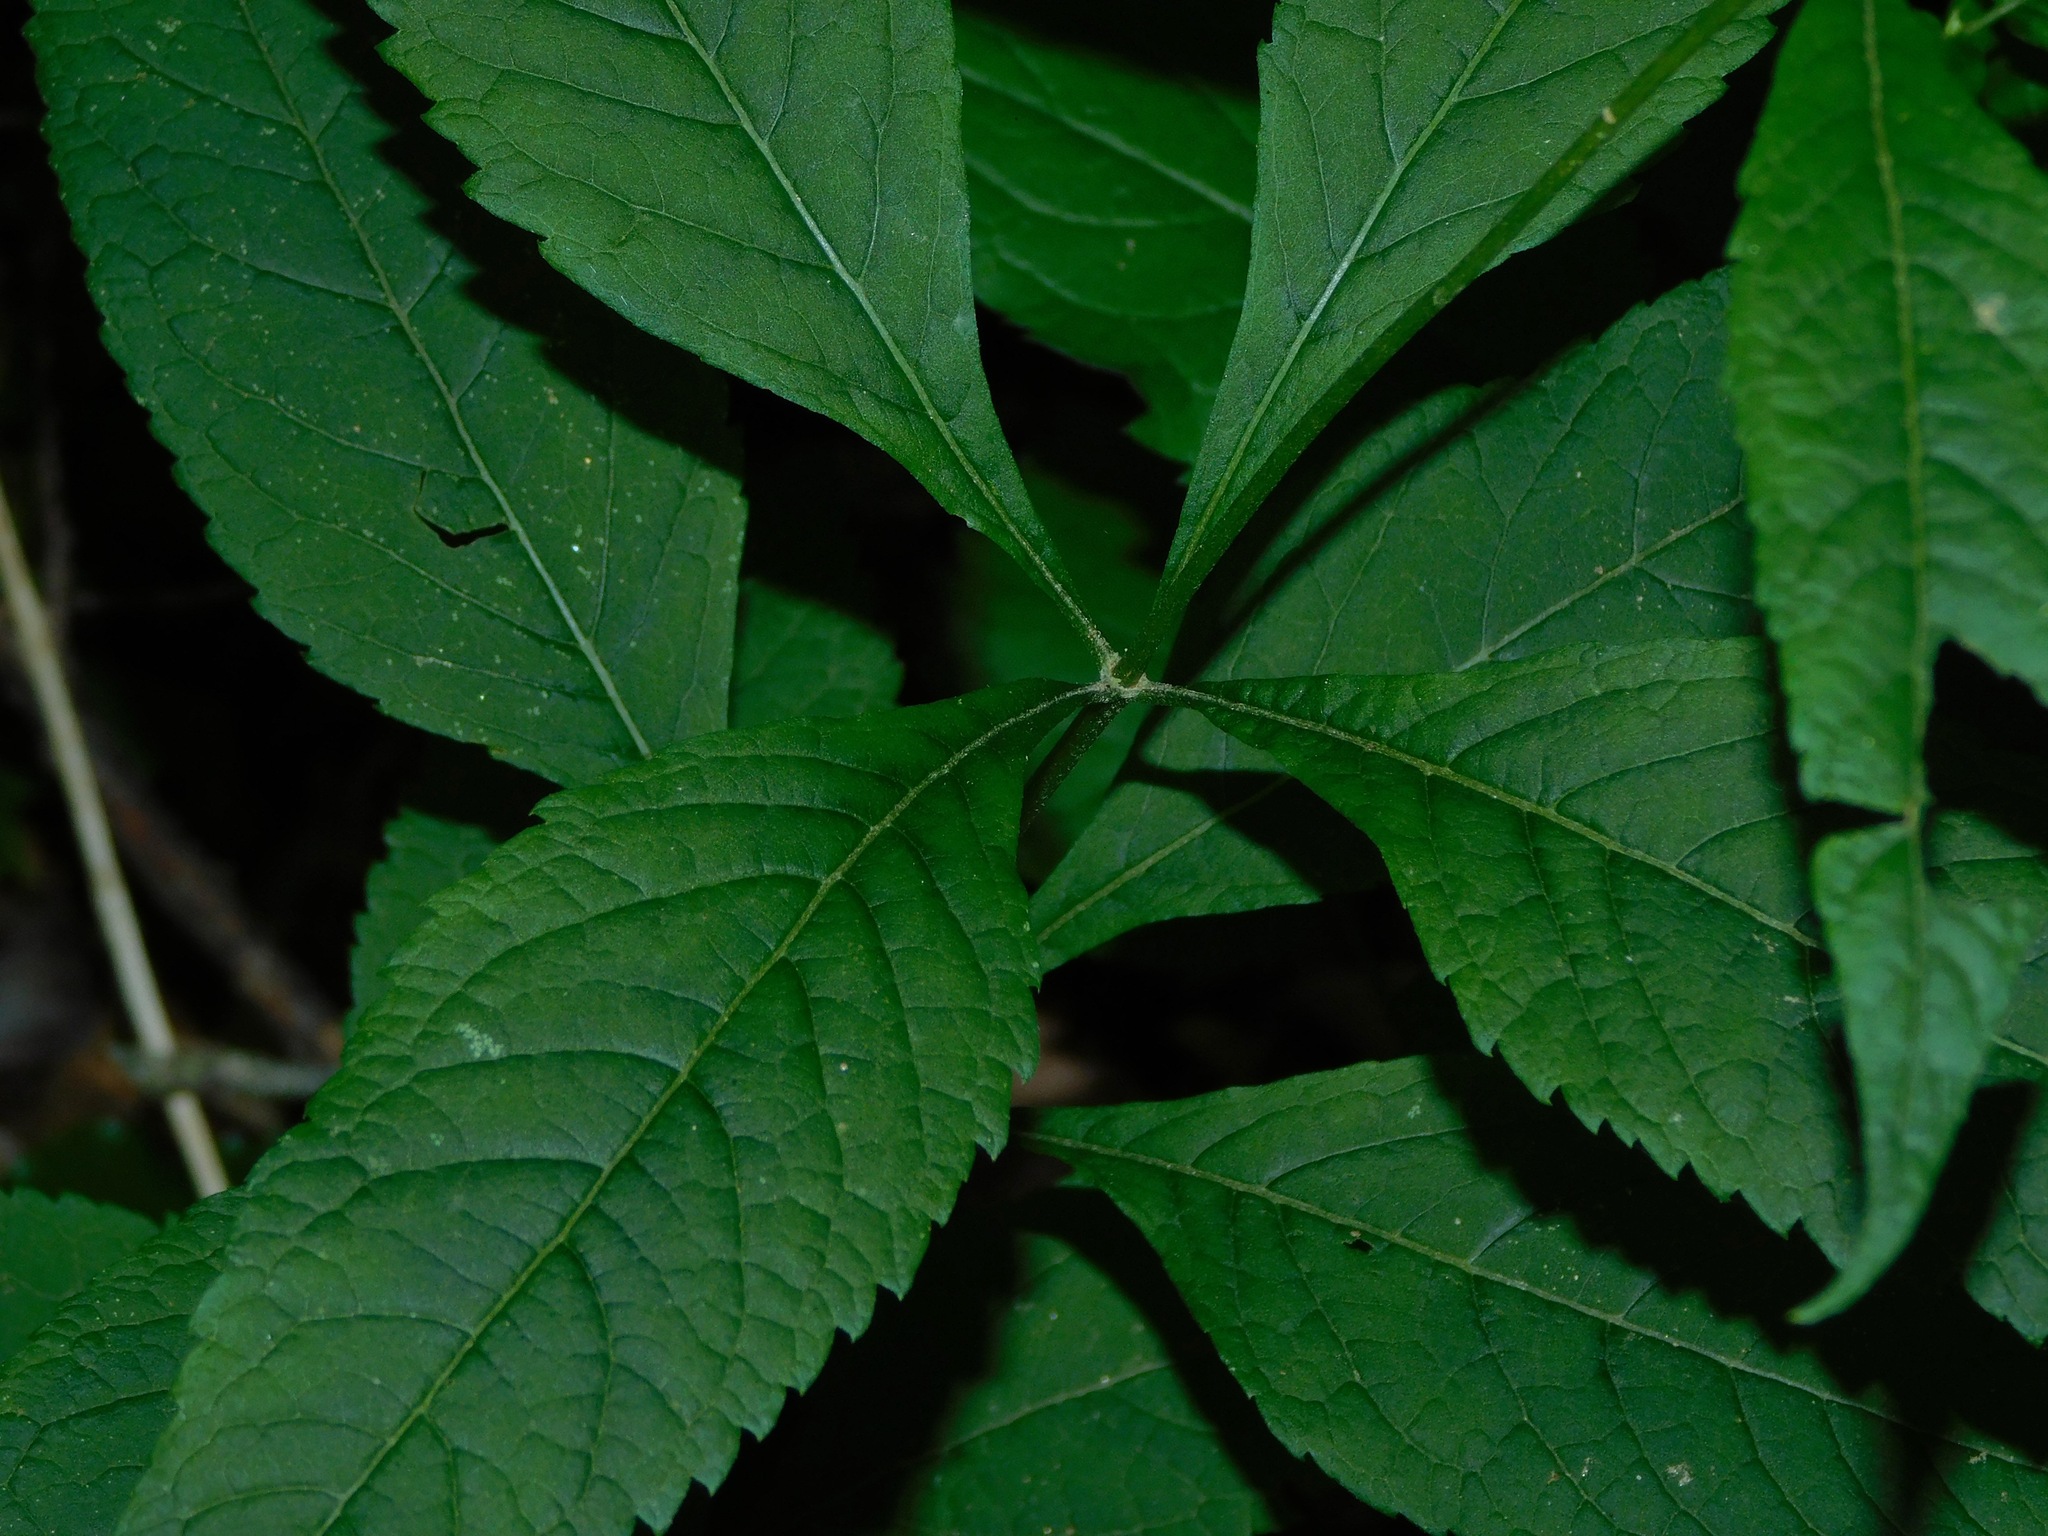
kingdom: Plantae
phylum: Tracheophyta
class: Magnoliopsida
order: Asterales
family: Asteraceae
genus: Eutrochium
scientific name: Eutrochium purpureum
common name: Gravelroot
